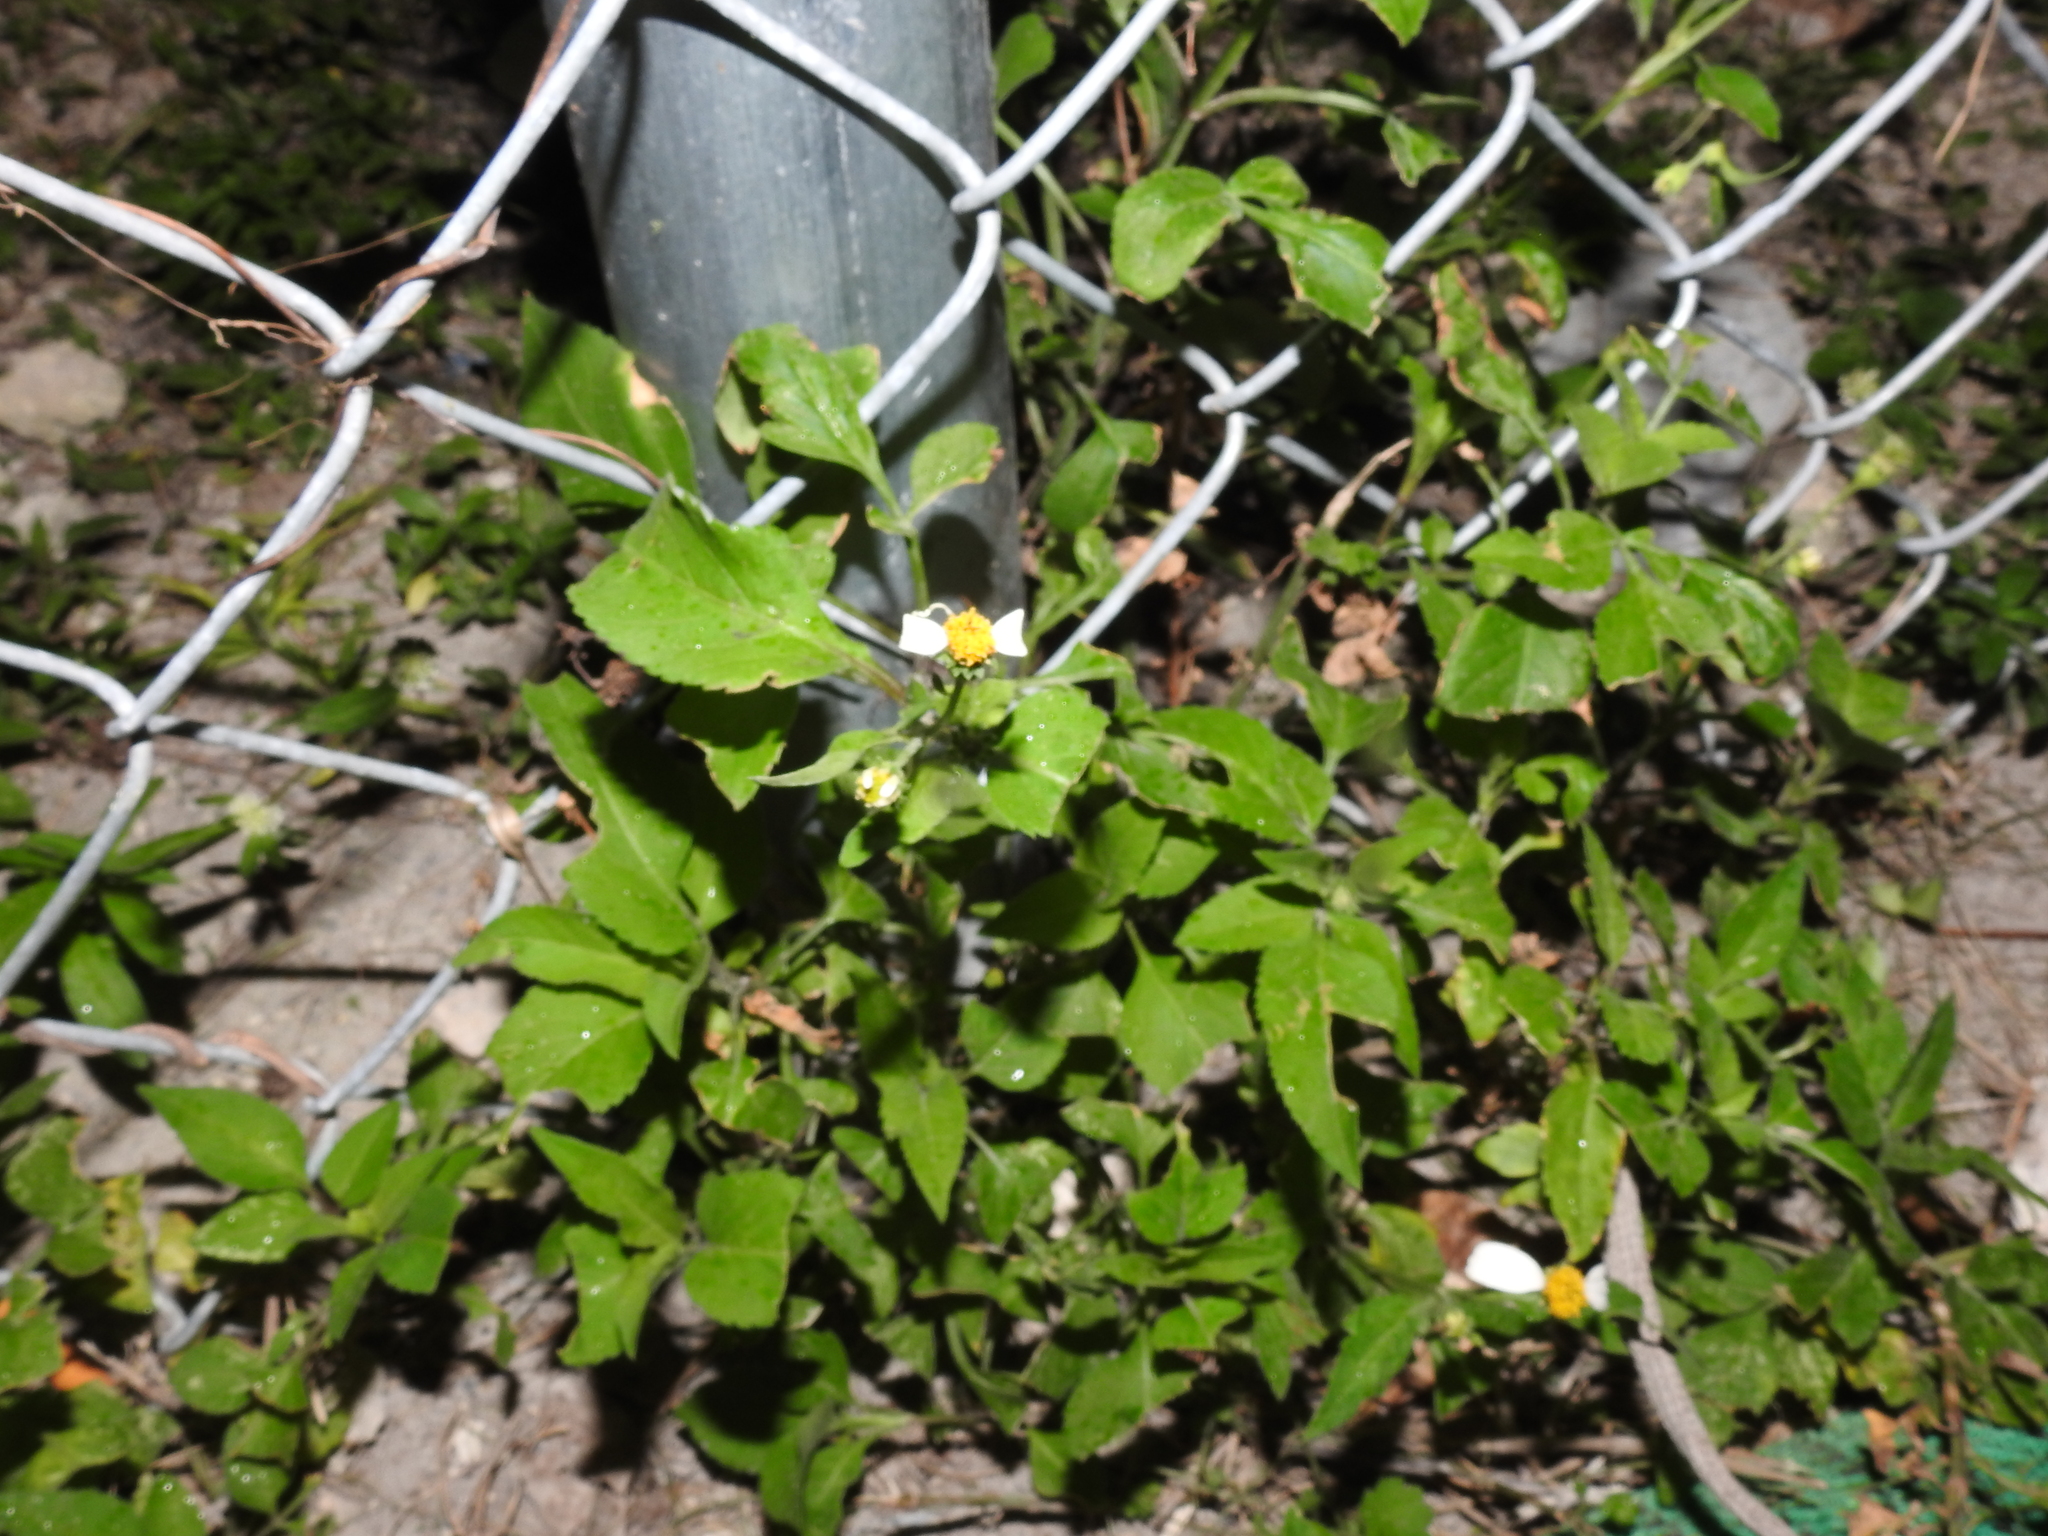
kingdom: Plantae
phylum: Tracheophyta
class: Magnoliopsida
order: Asterales
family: Asteraceae
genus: Bidens
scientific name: Bidens alba
